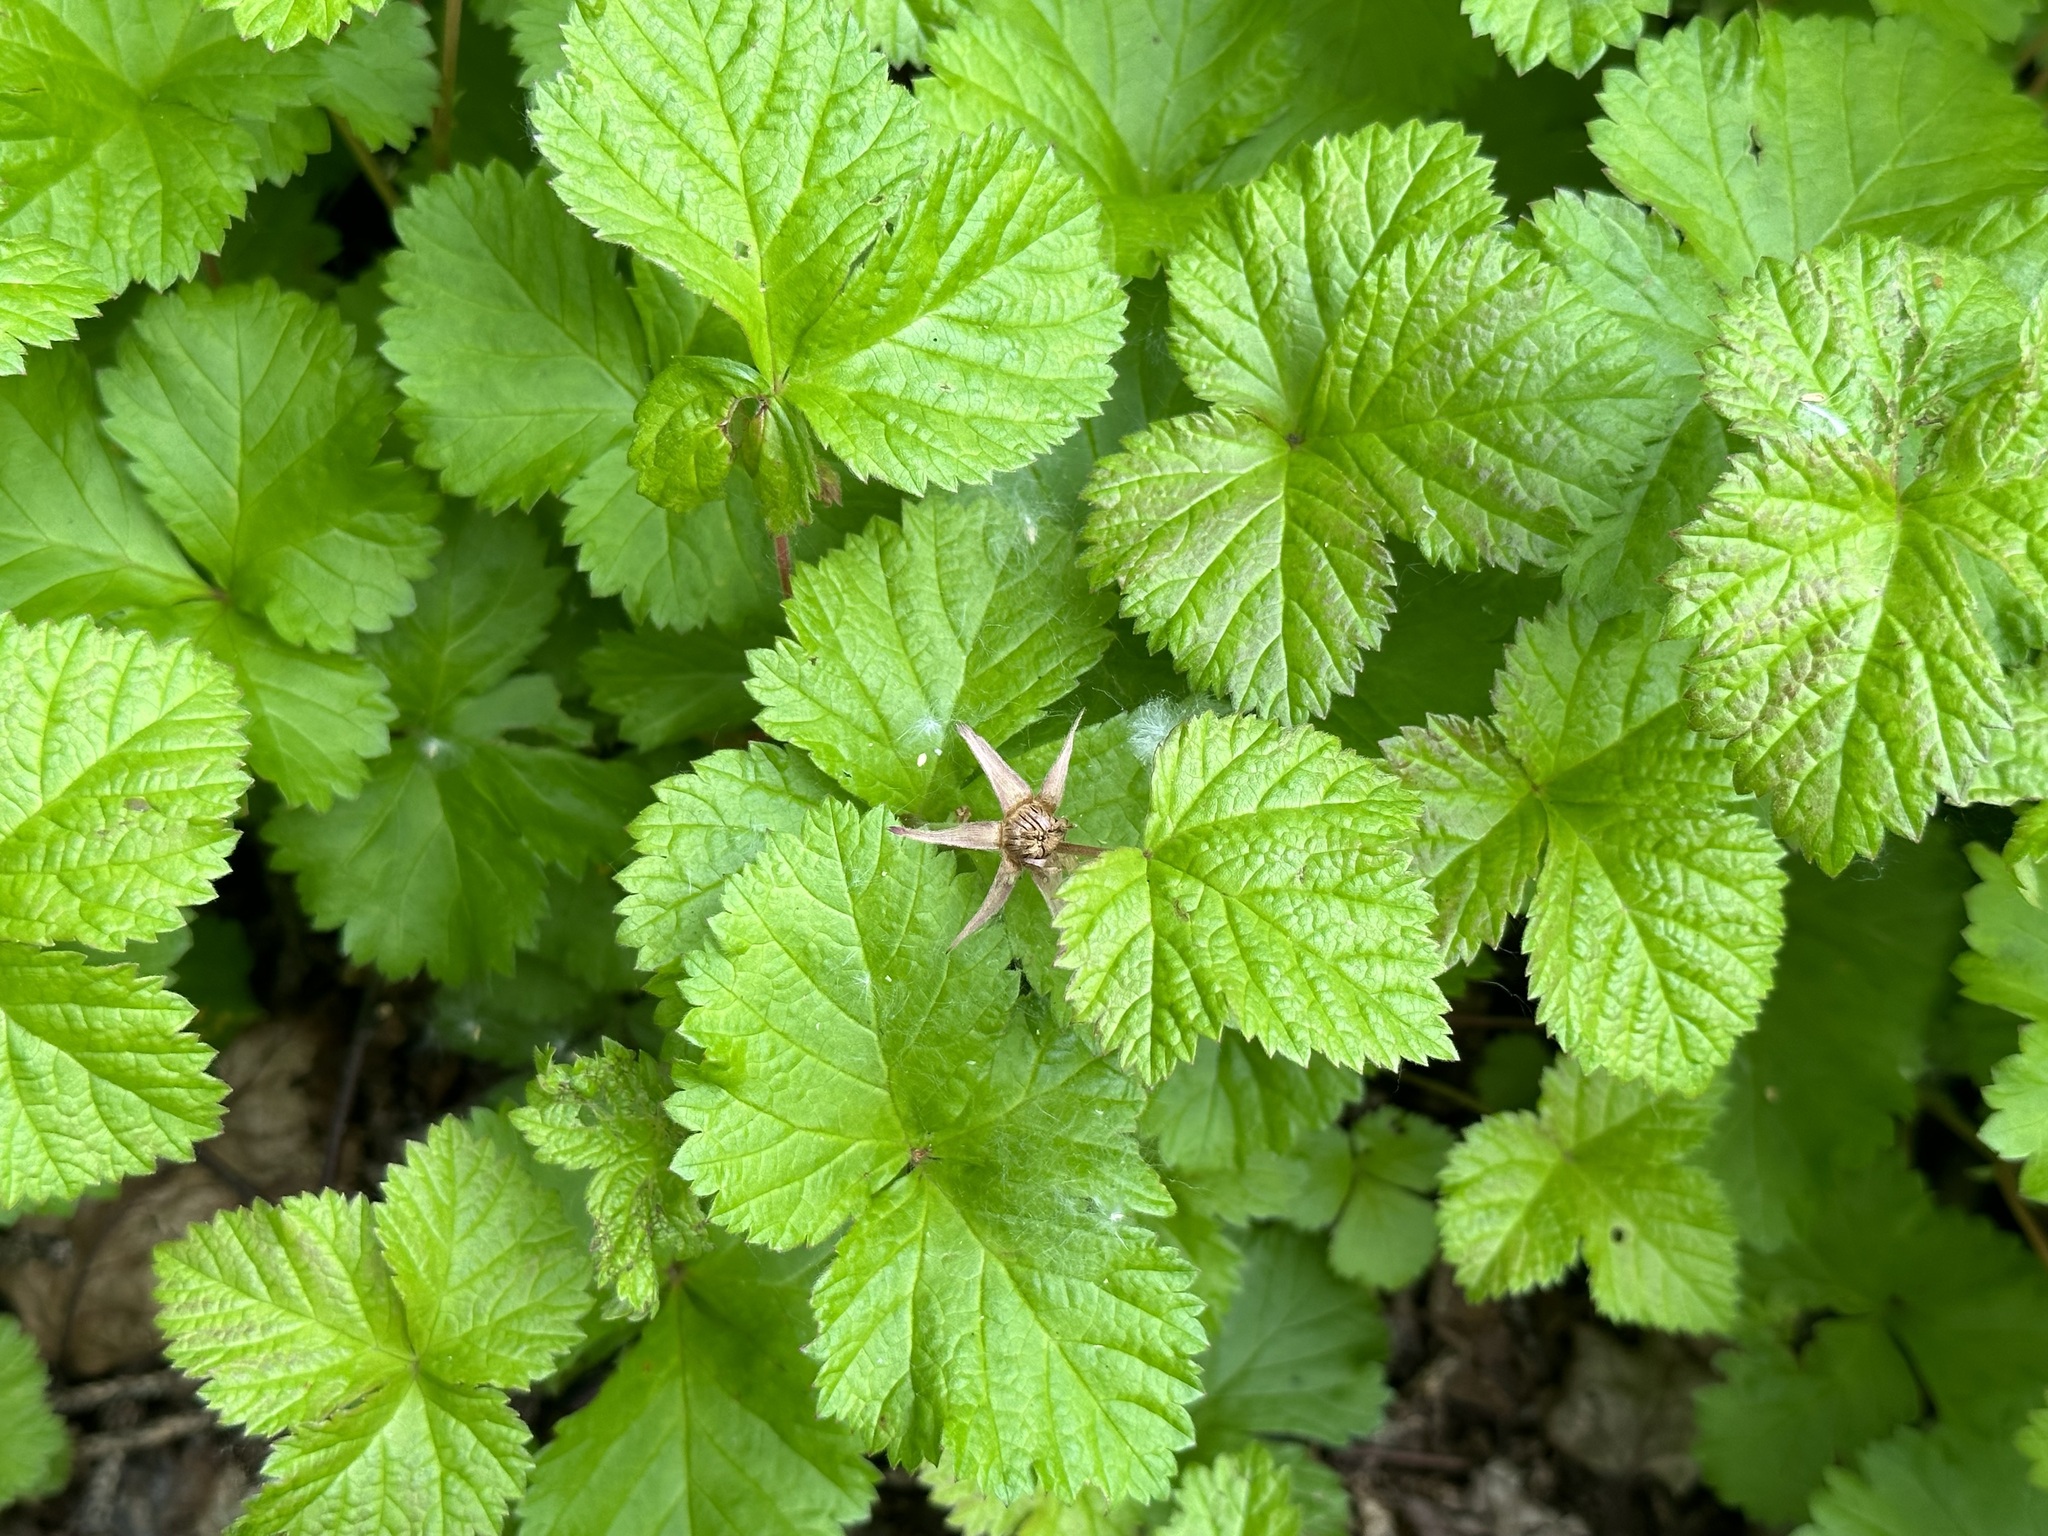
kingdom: Plantae
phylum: Tracheophyta
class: Magnoliopsida
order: Rosales
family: Rosaceae
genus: Rubus
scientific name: Rubus arcticus
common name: Arctic bramble
